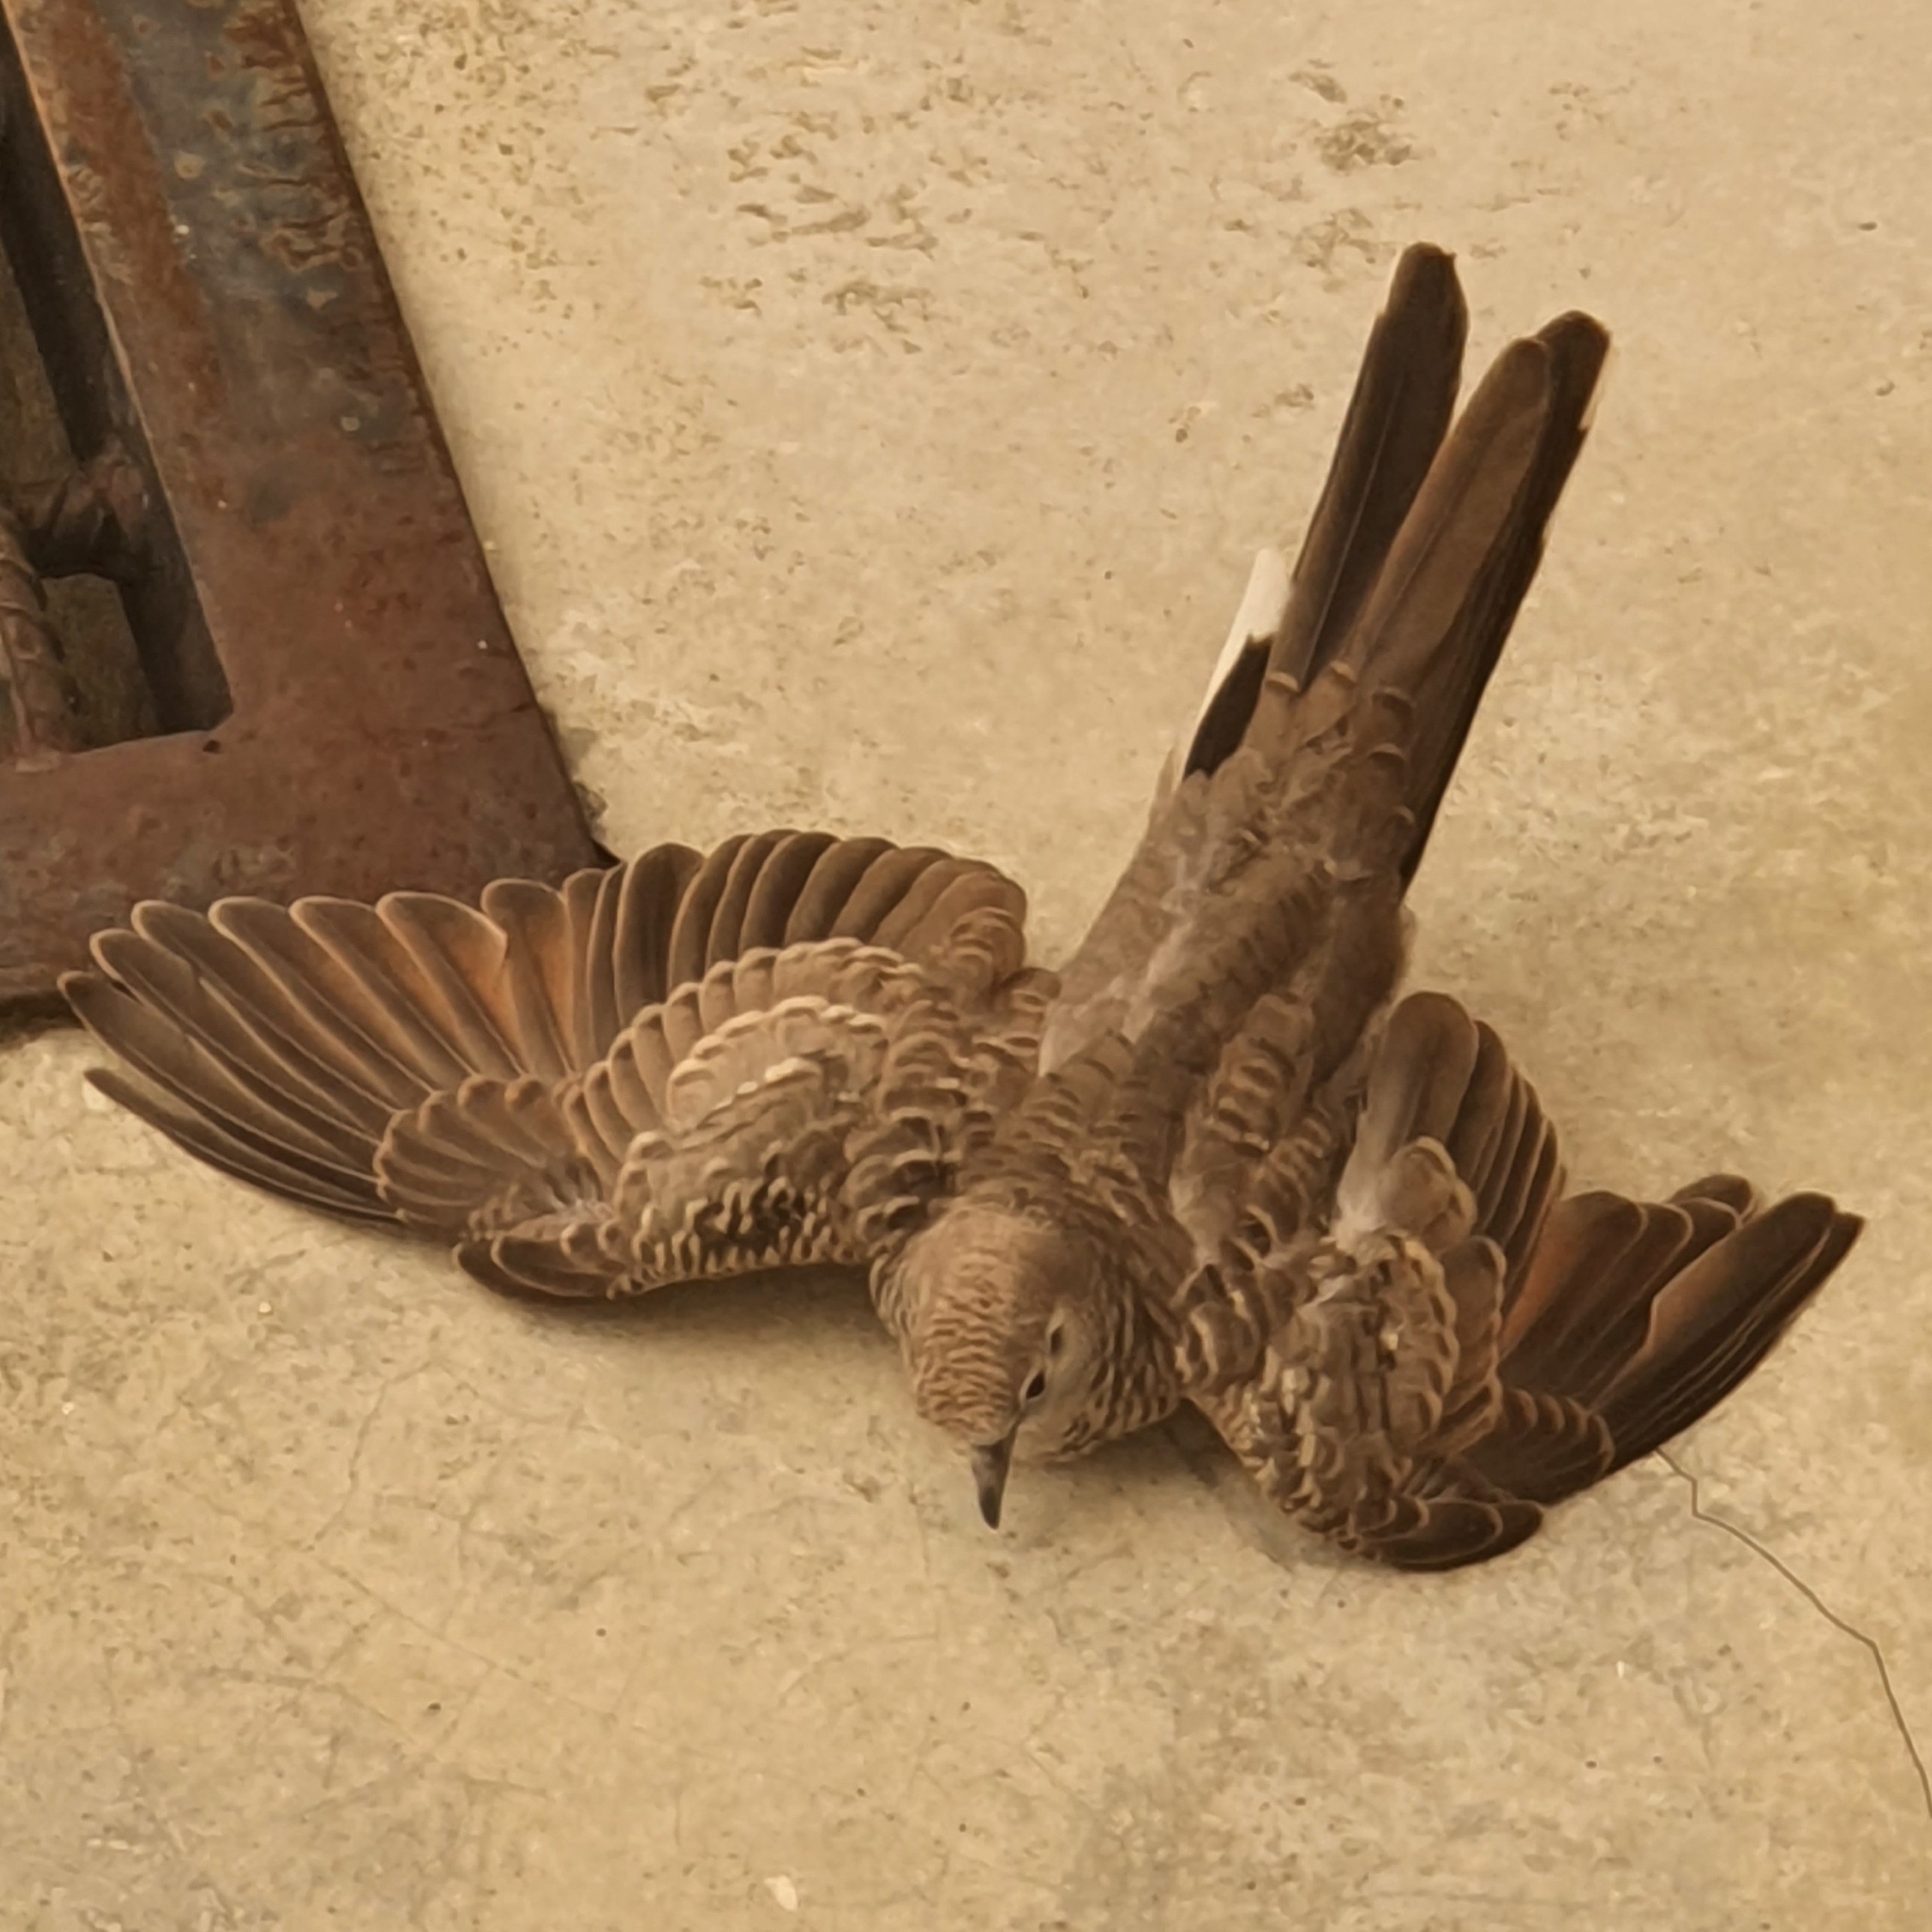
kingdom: Animalia
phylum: Chordata
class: Aves
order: Columbiformes
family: Columbidae
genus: Geopelia
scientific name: Geopelia striata
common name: Zebra dove
